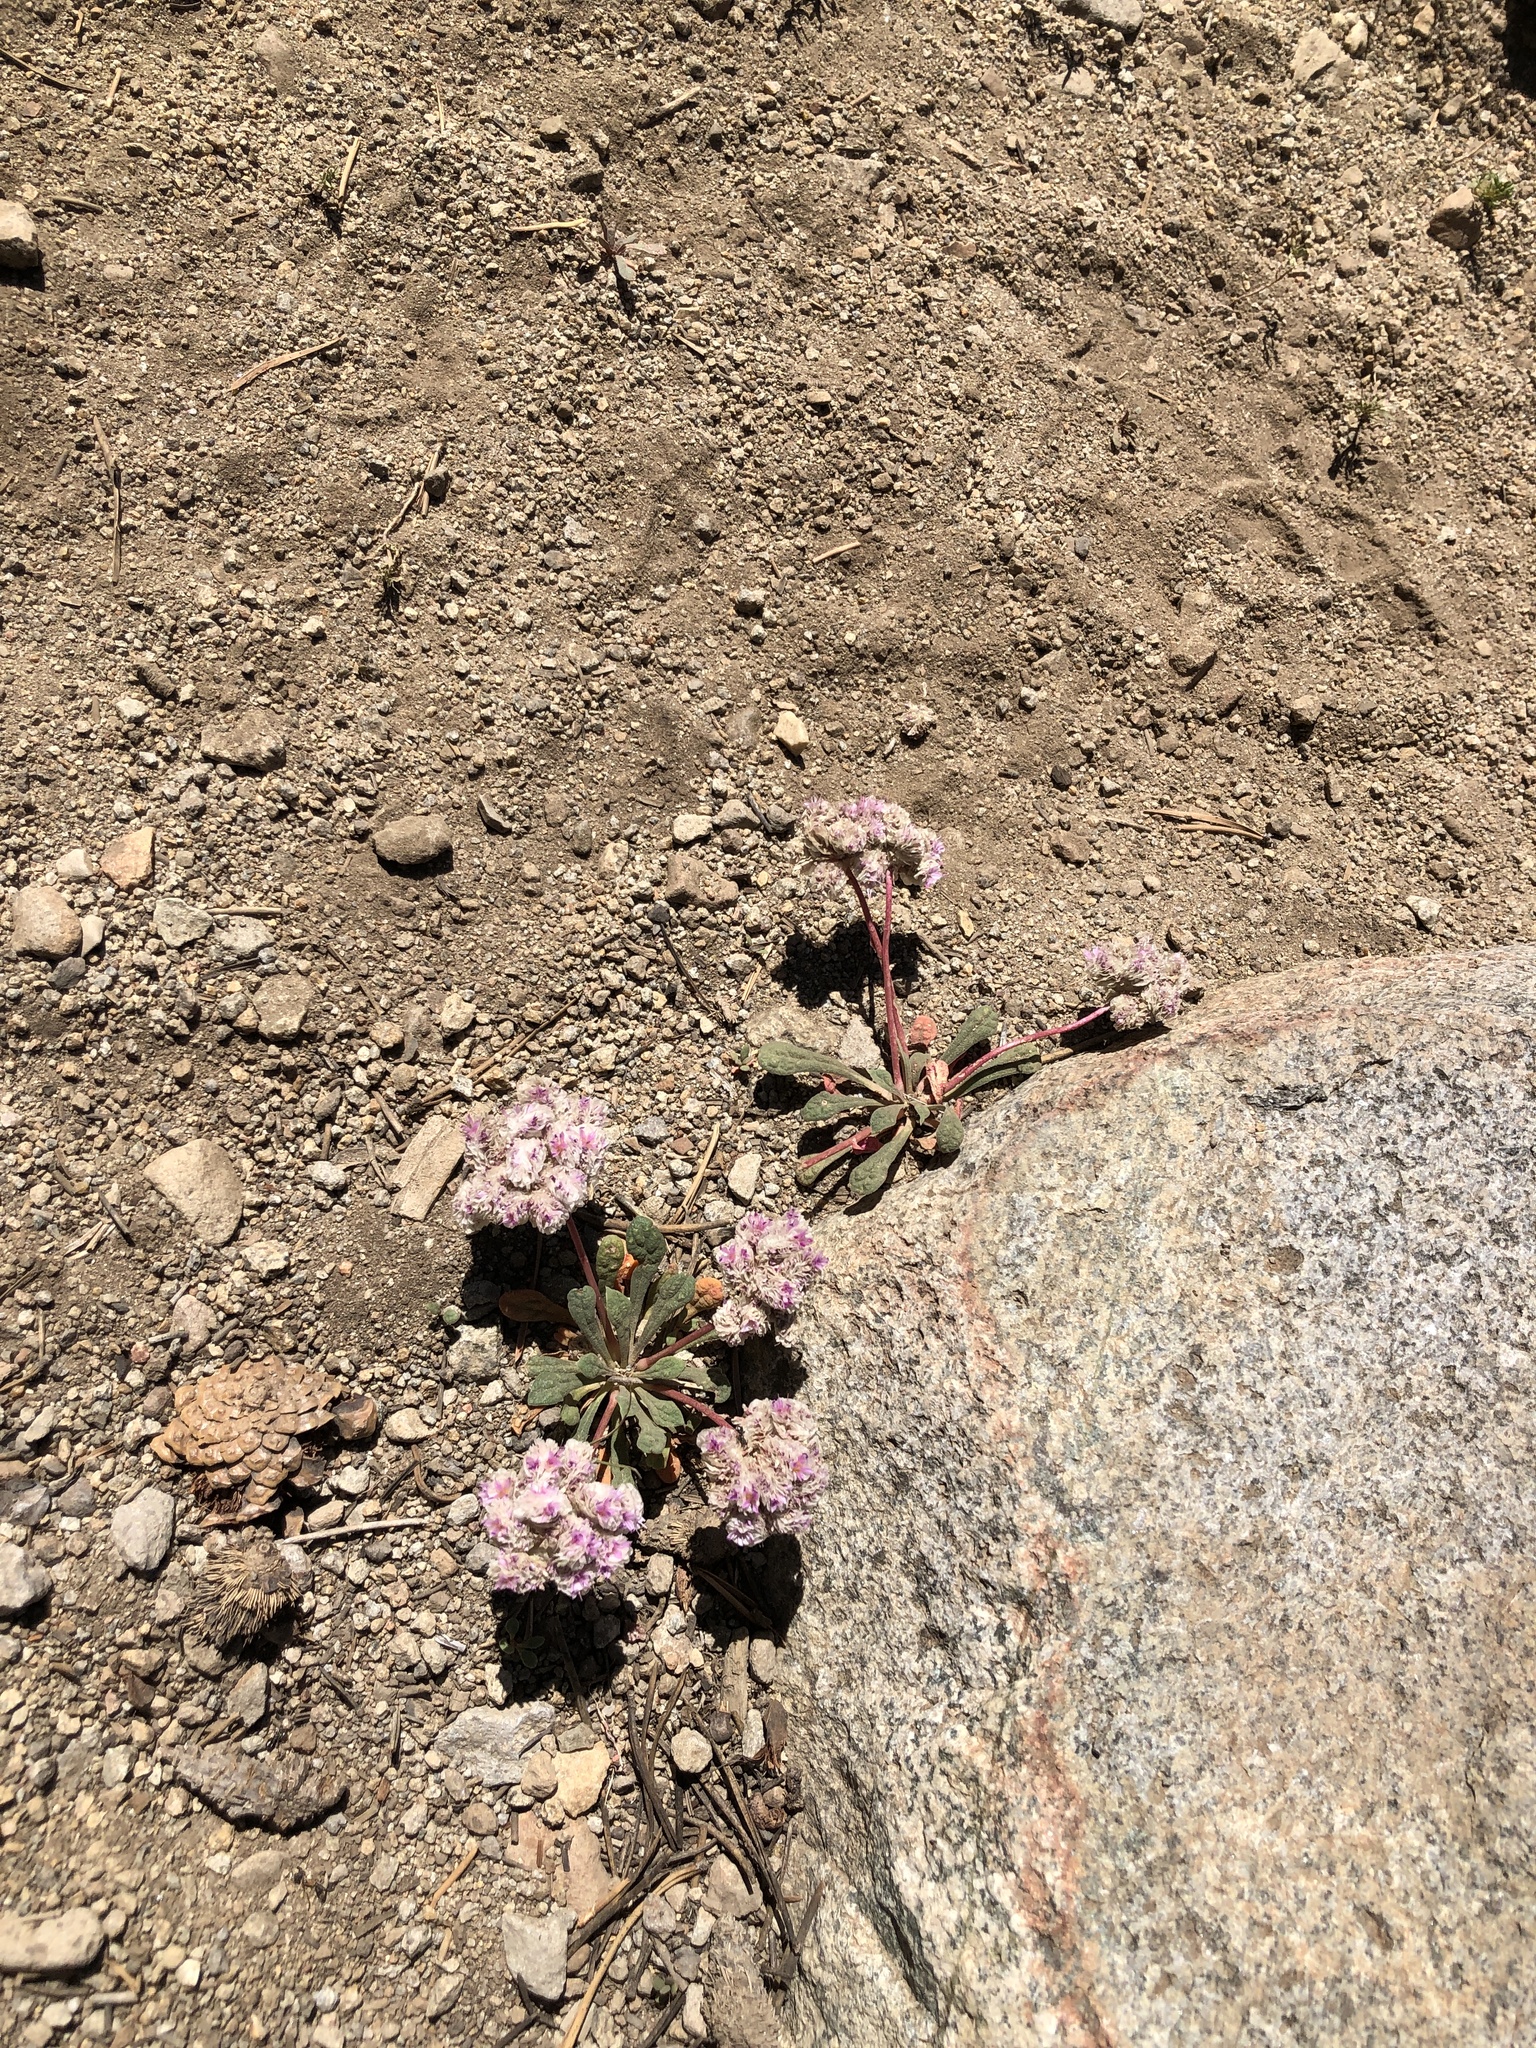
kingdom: Plantae
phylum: Tracheophyta
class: Magnoliopsida
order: Caryophyllales
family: Montiaceae
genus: Calyptridium
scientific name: Calyptridium monospermum
